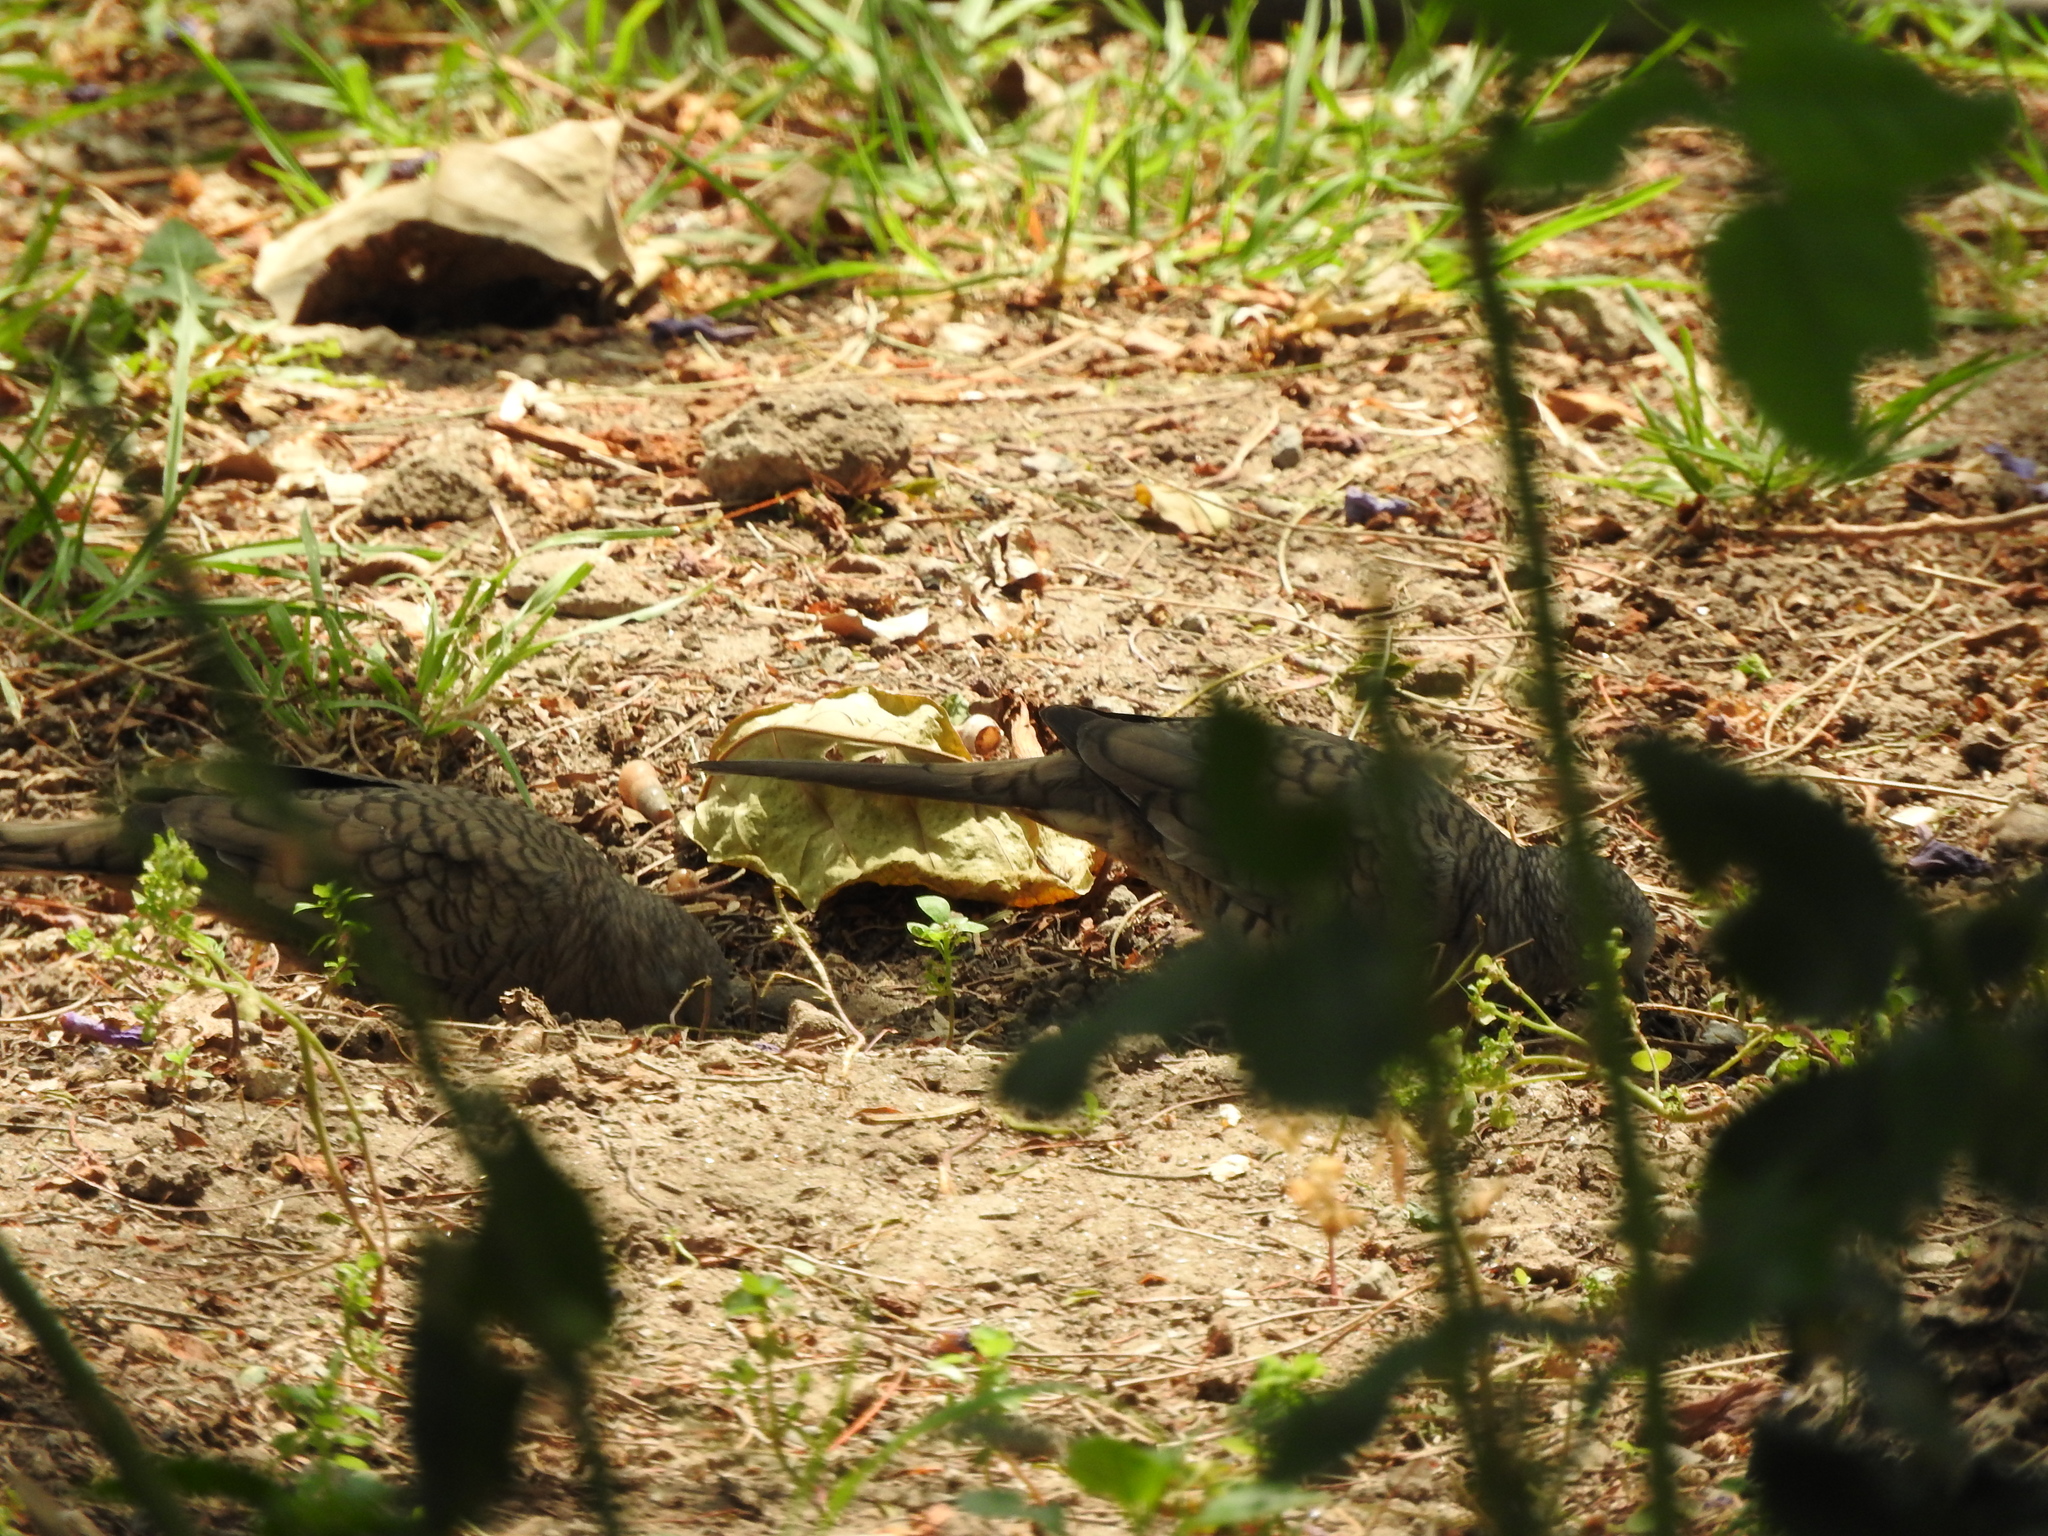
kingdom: Animalia
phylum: Chordata
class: Aves
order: Columbiformes
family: Columbidae
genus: Columbina
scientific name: Columbina inca
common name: Inca dove
